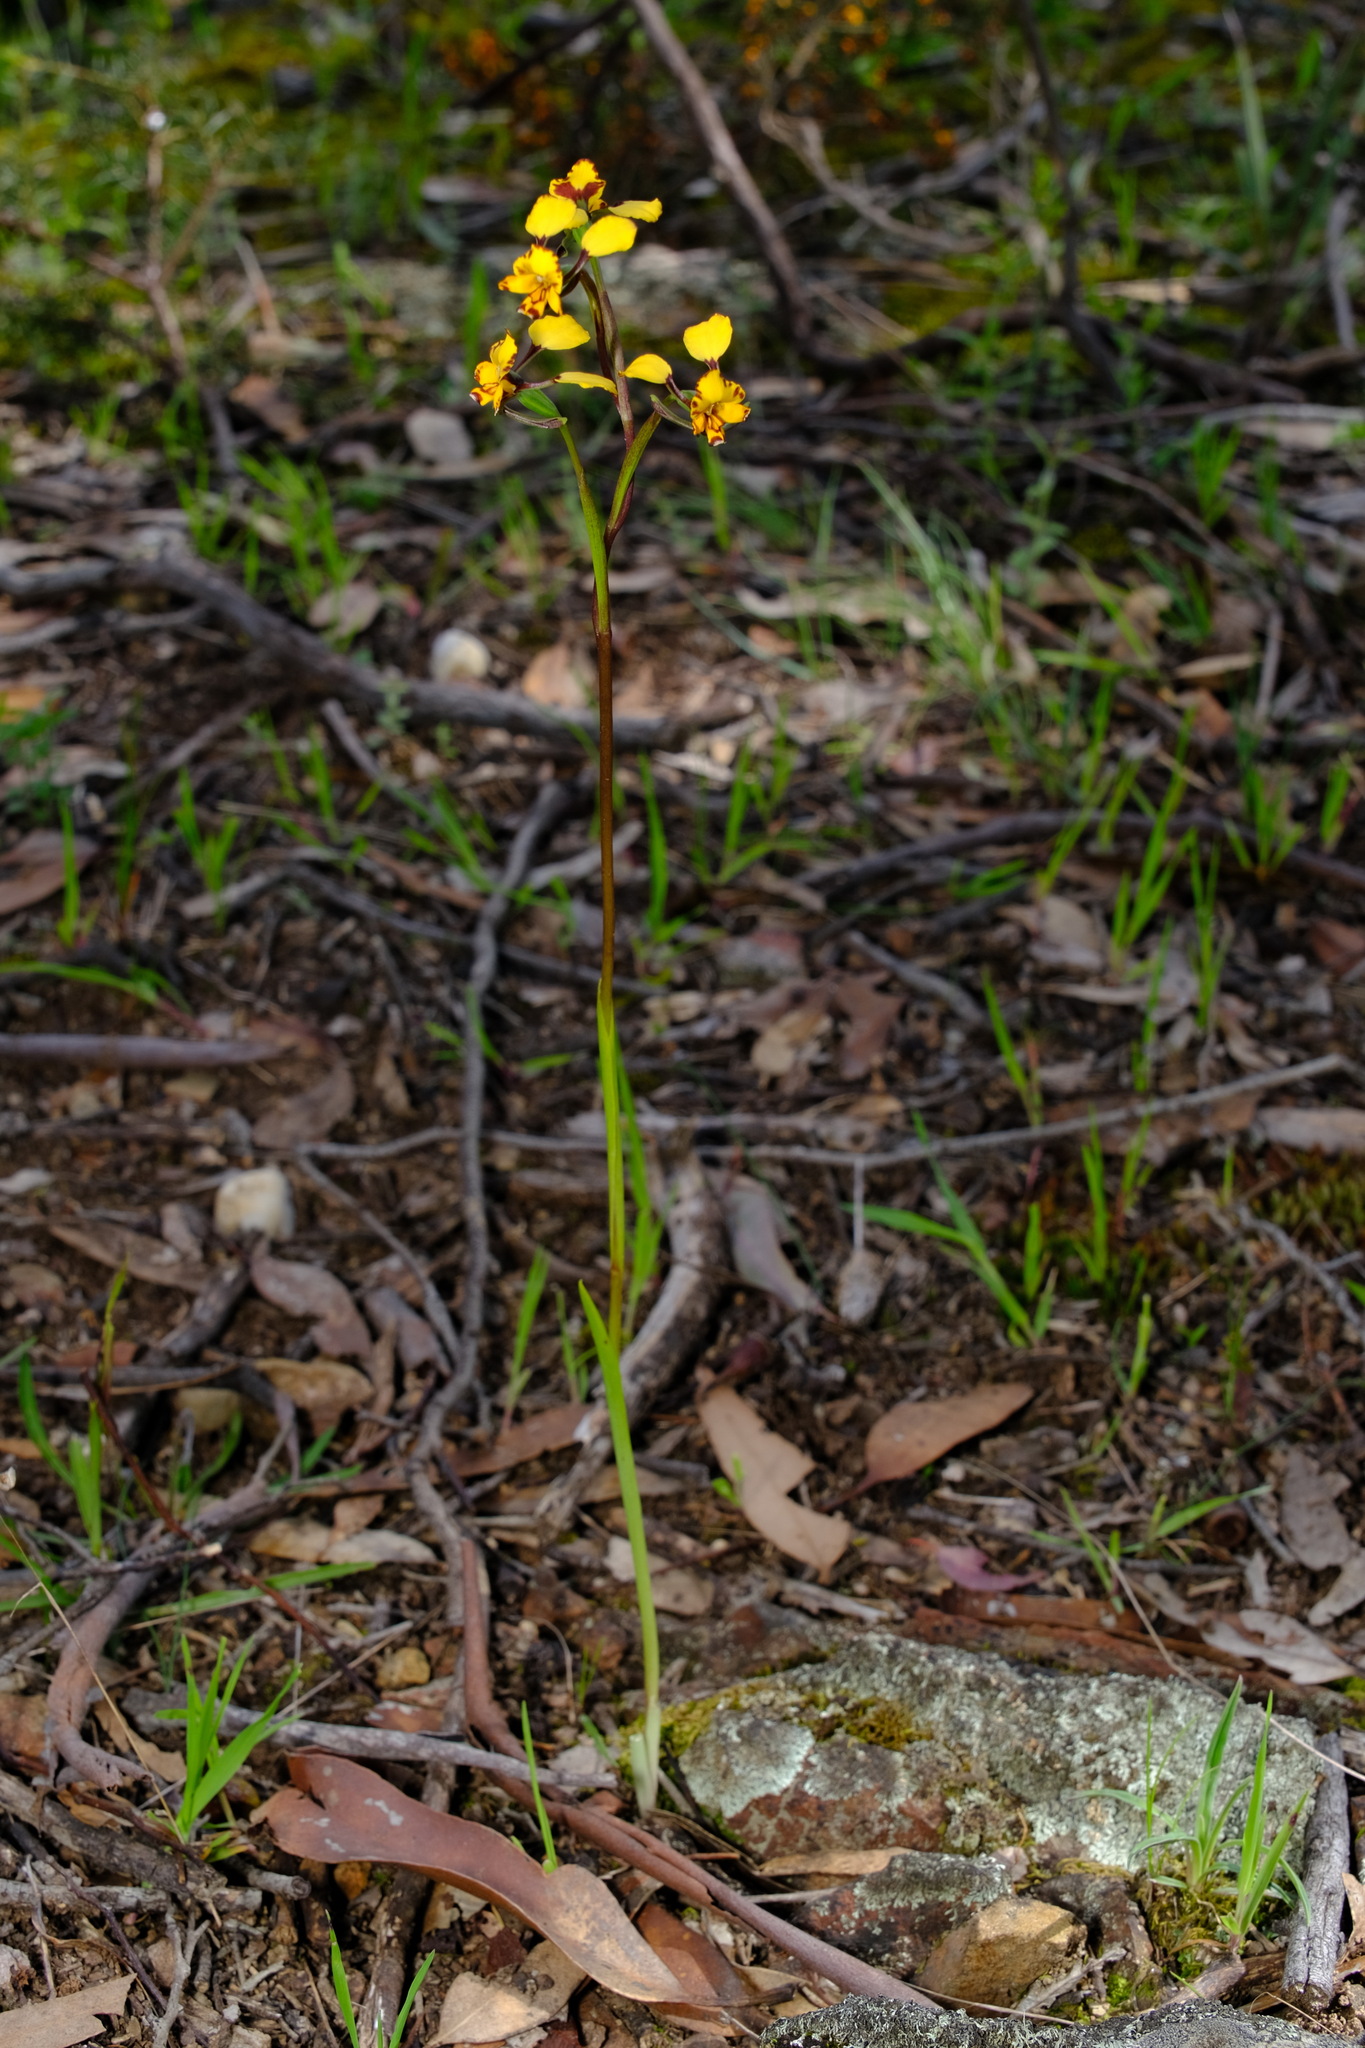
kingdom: Plantae
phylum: Tracheophyta
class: Liliopsida
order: Asparagales
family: Orchidaceae
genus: Diuris
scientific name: Diuris pardina
